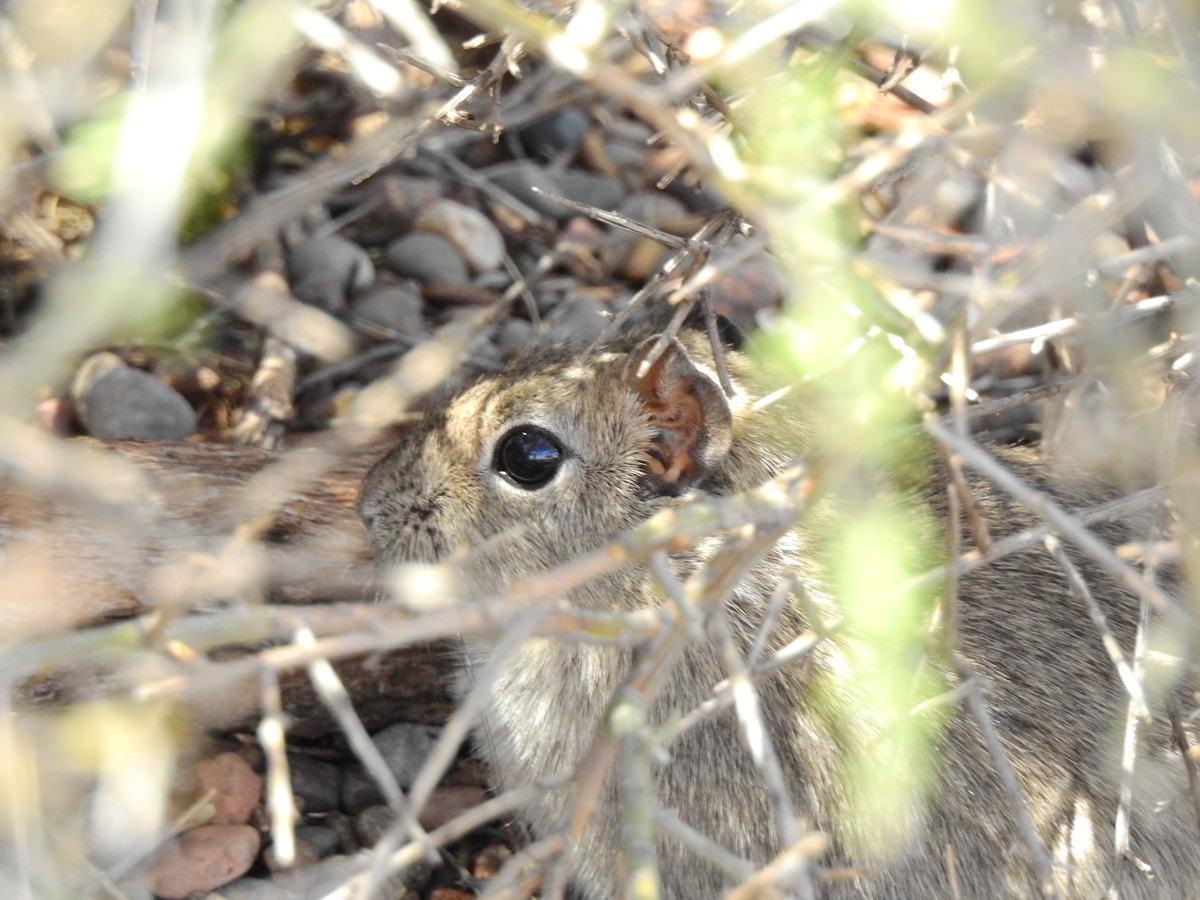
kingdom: Animalia
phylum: Chordata
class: Mammalia
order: Rodentia
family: Caviidae
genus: Microcavia
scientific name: Microcavia
